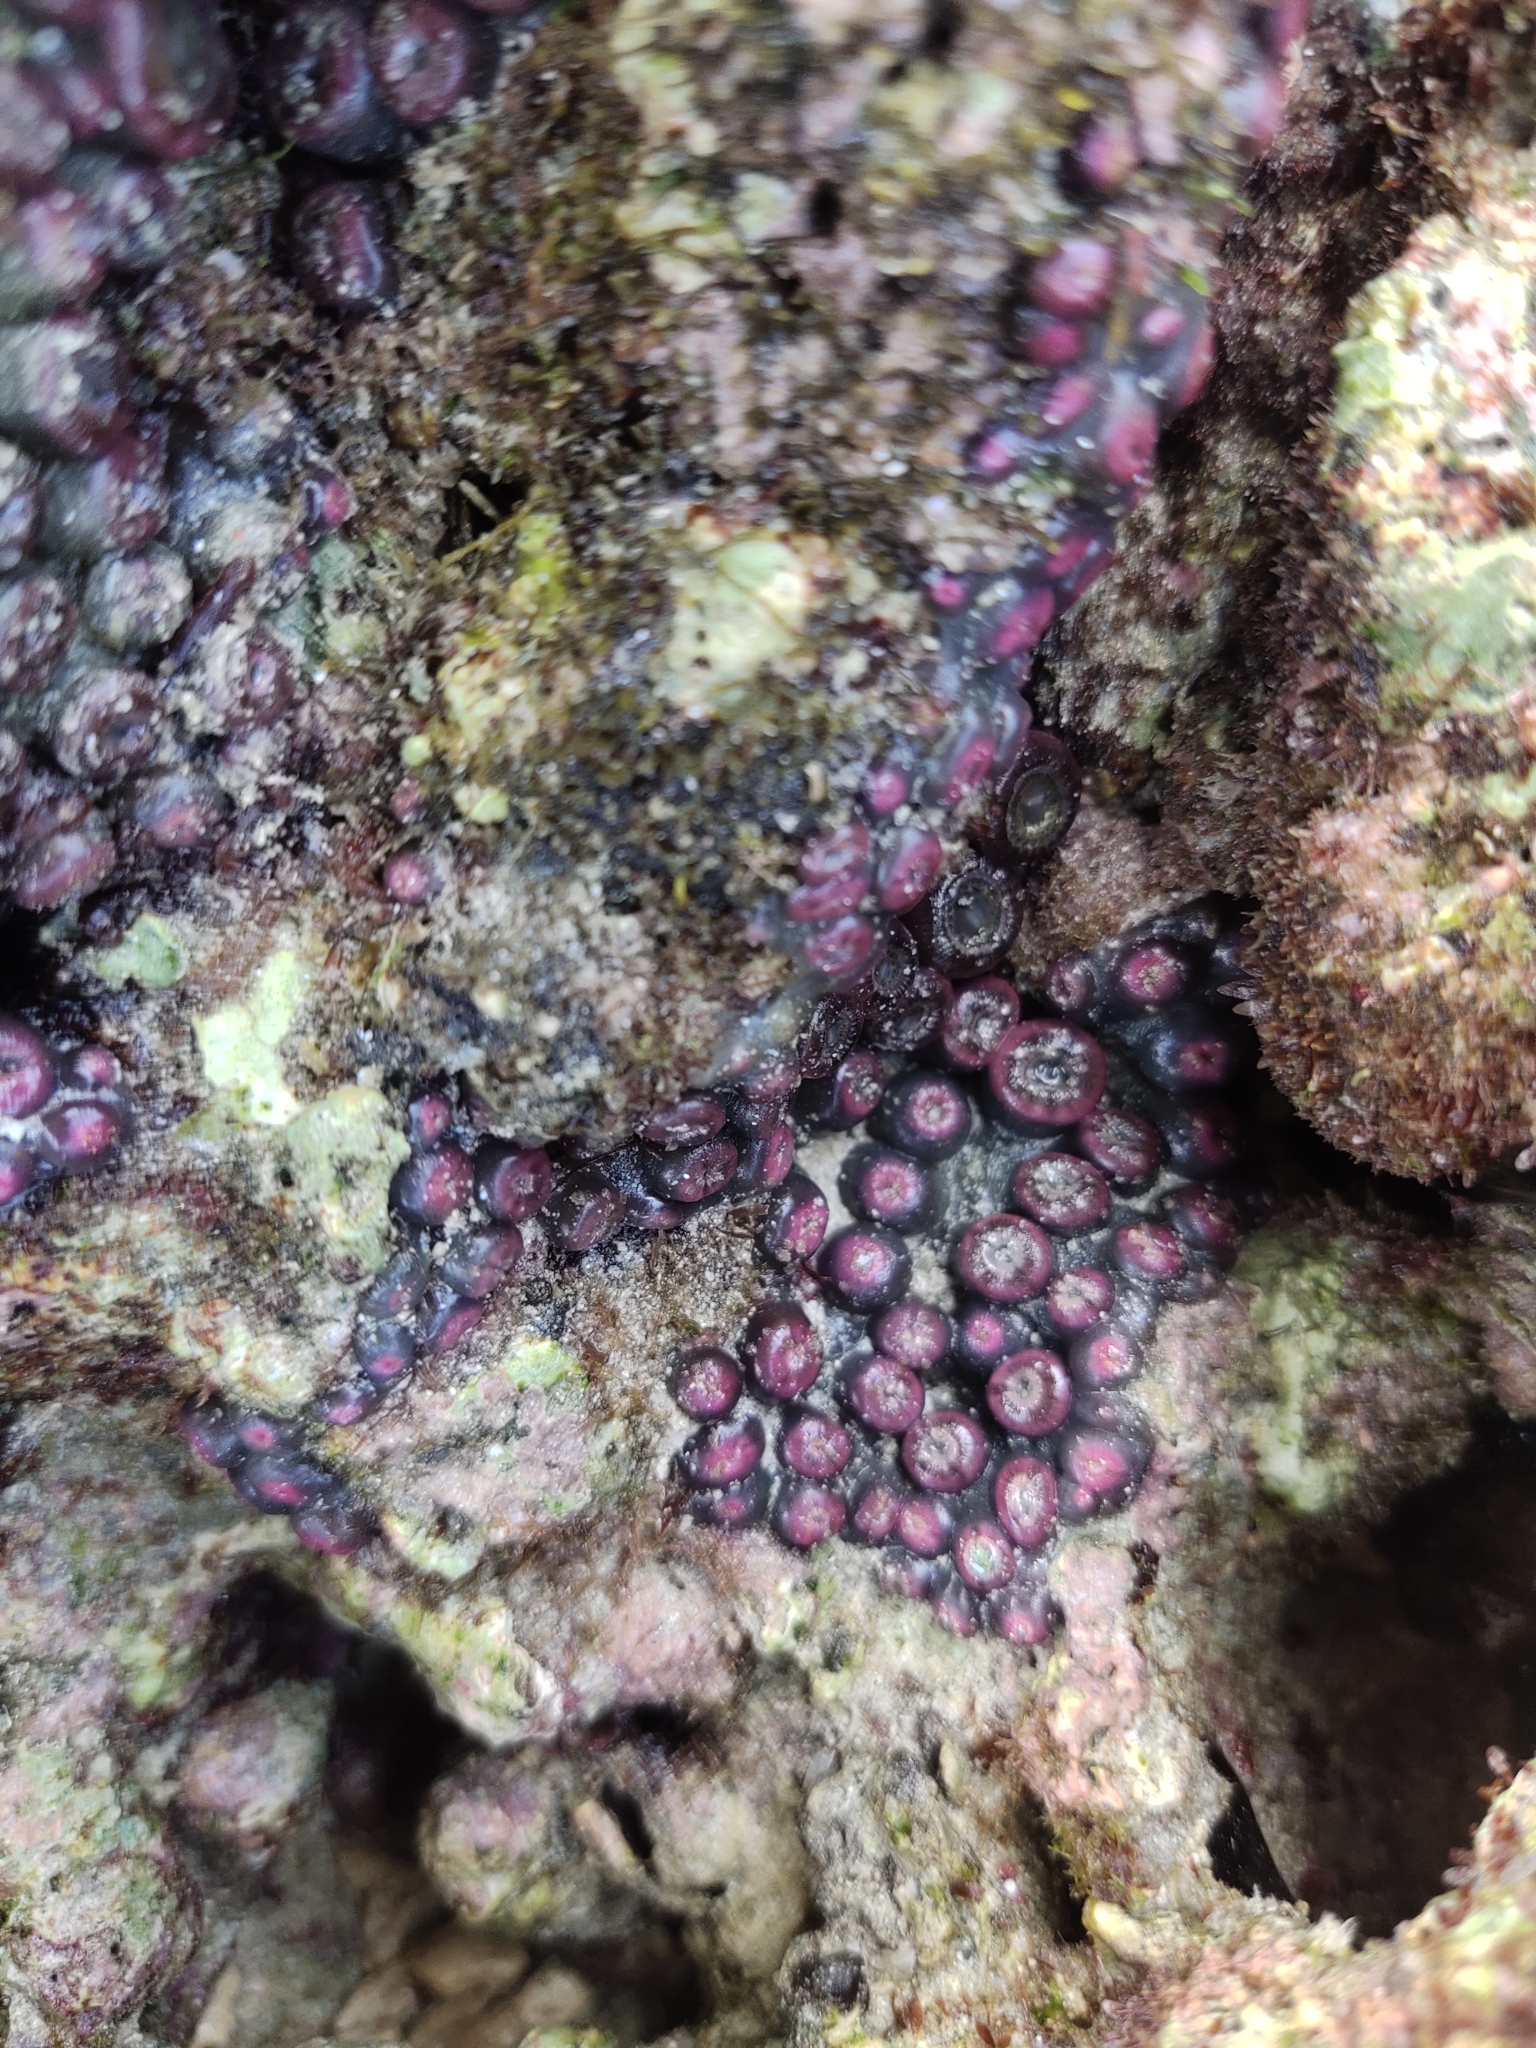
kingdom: Animalia
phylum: Cnidaria
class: Anthozoa
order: Zoantharia
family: Zoanthidae
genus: Zoanthus
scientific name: Zoanthus sansibaricus
